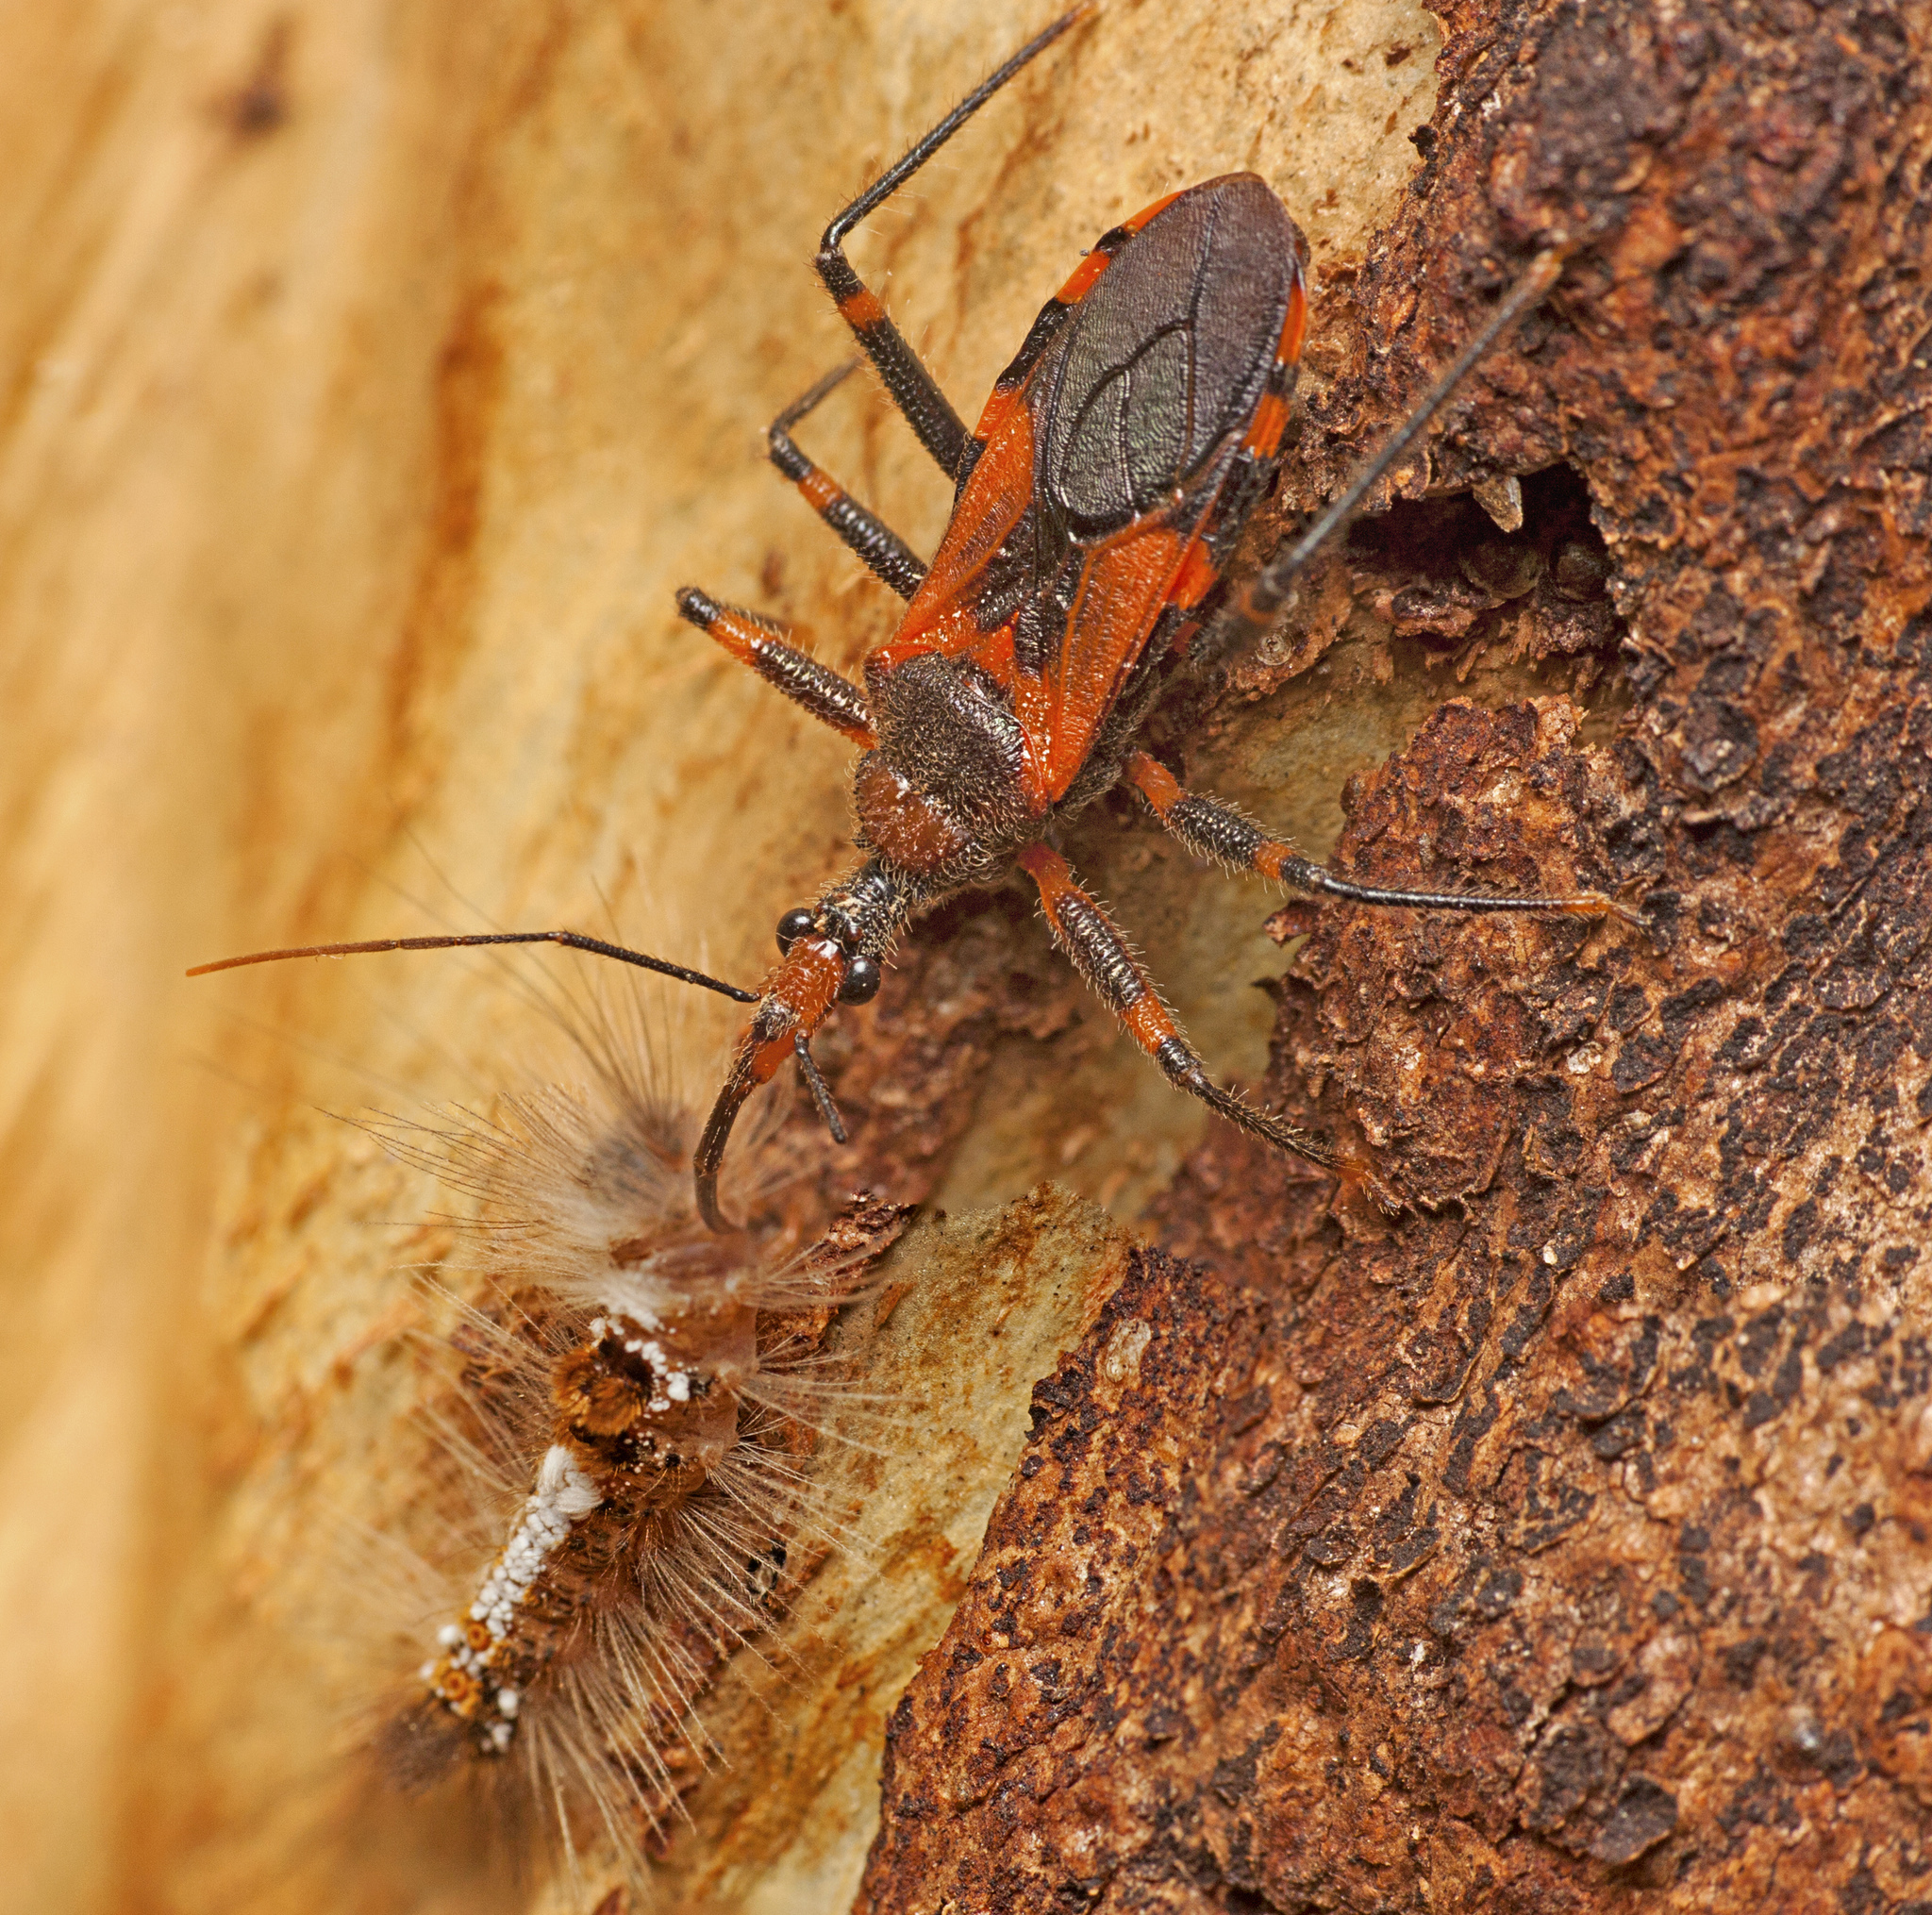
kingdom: Animalia
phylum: Arthropoda
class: Insecta
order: Hemiptera
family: Reduviidae
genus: Havinthus
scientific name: Havinthus rufovarius
